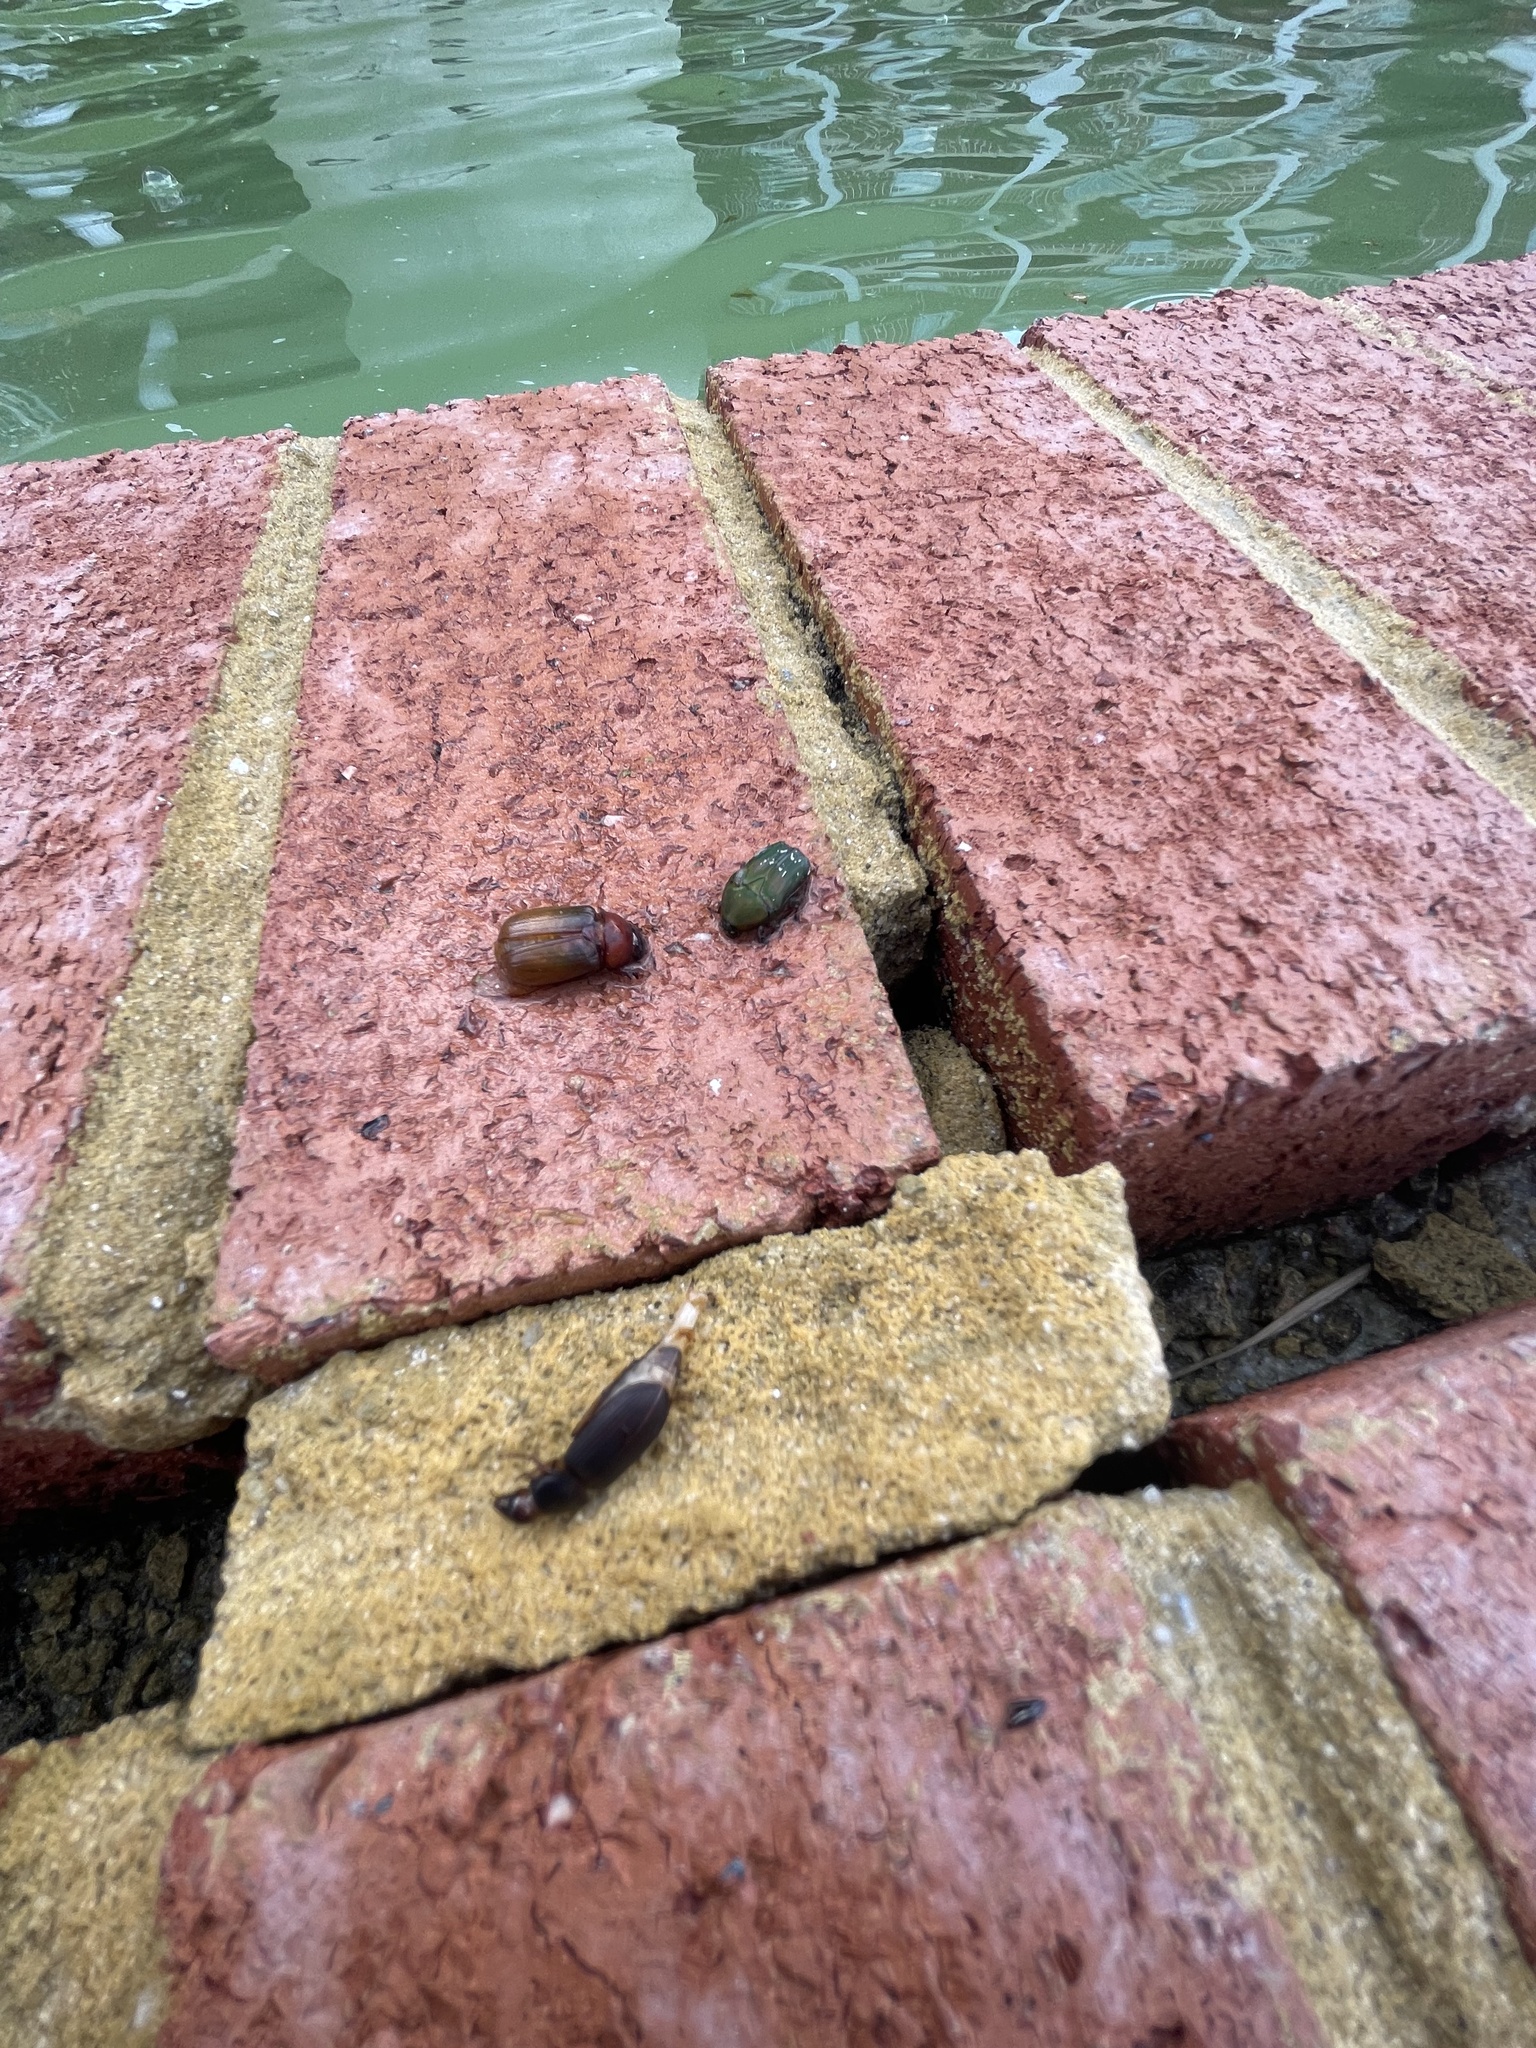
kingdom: Animalia
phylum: Arthropoda
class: Insecta
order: Coleoptera
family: Scarabaeidae
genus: Euphoria
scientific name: Euphoria herbacea
